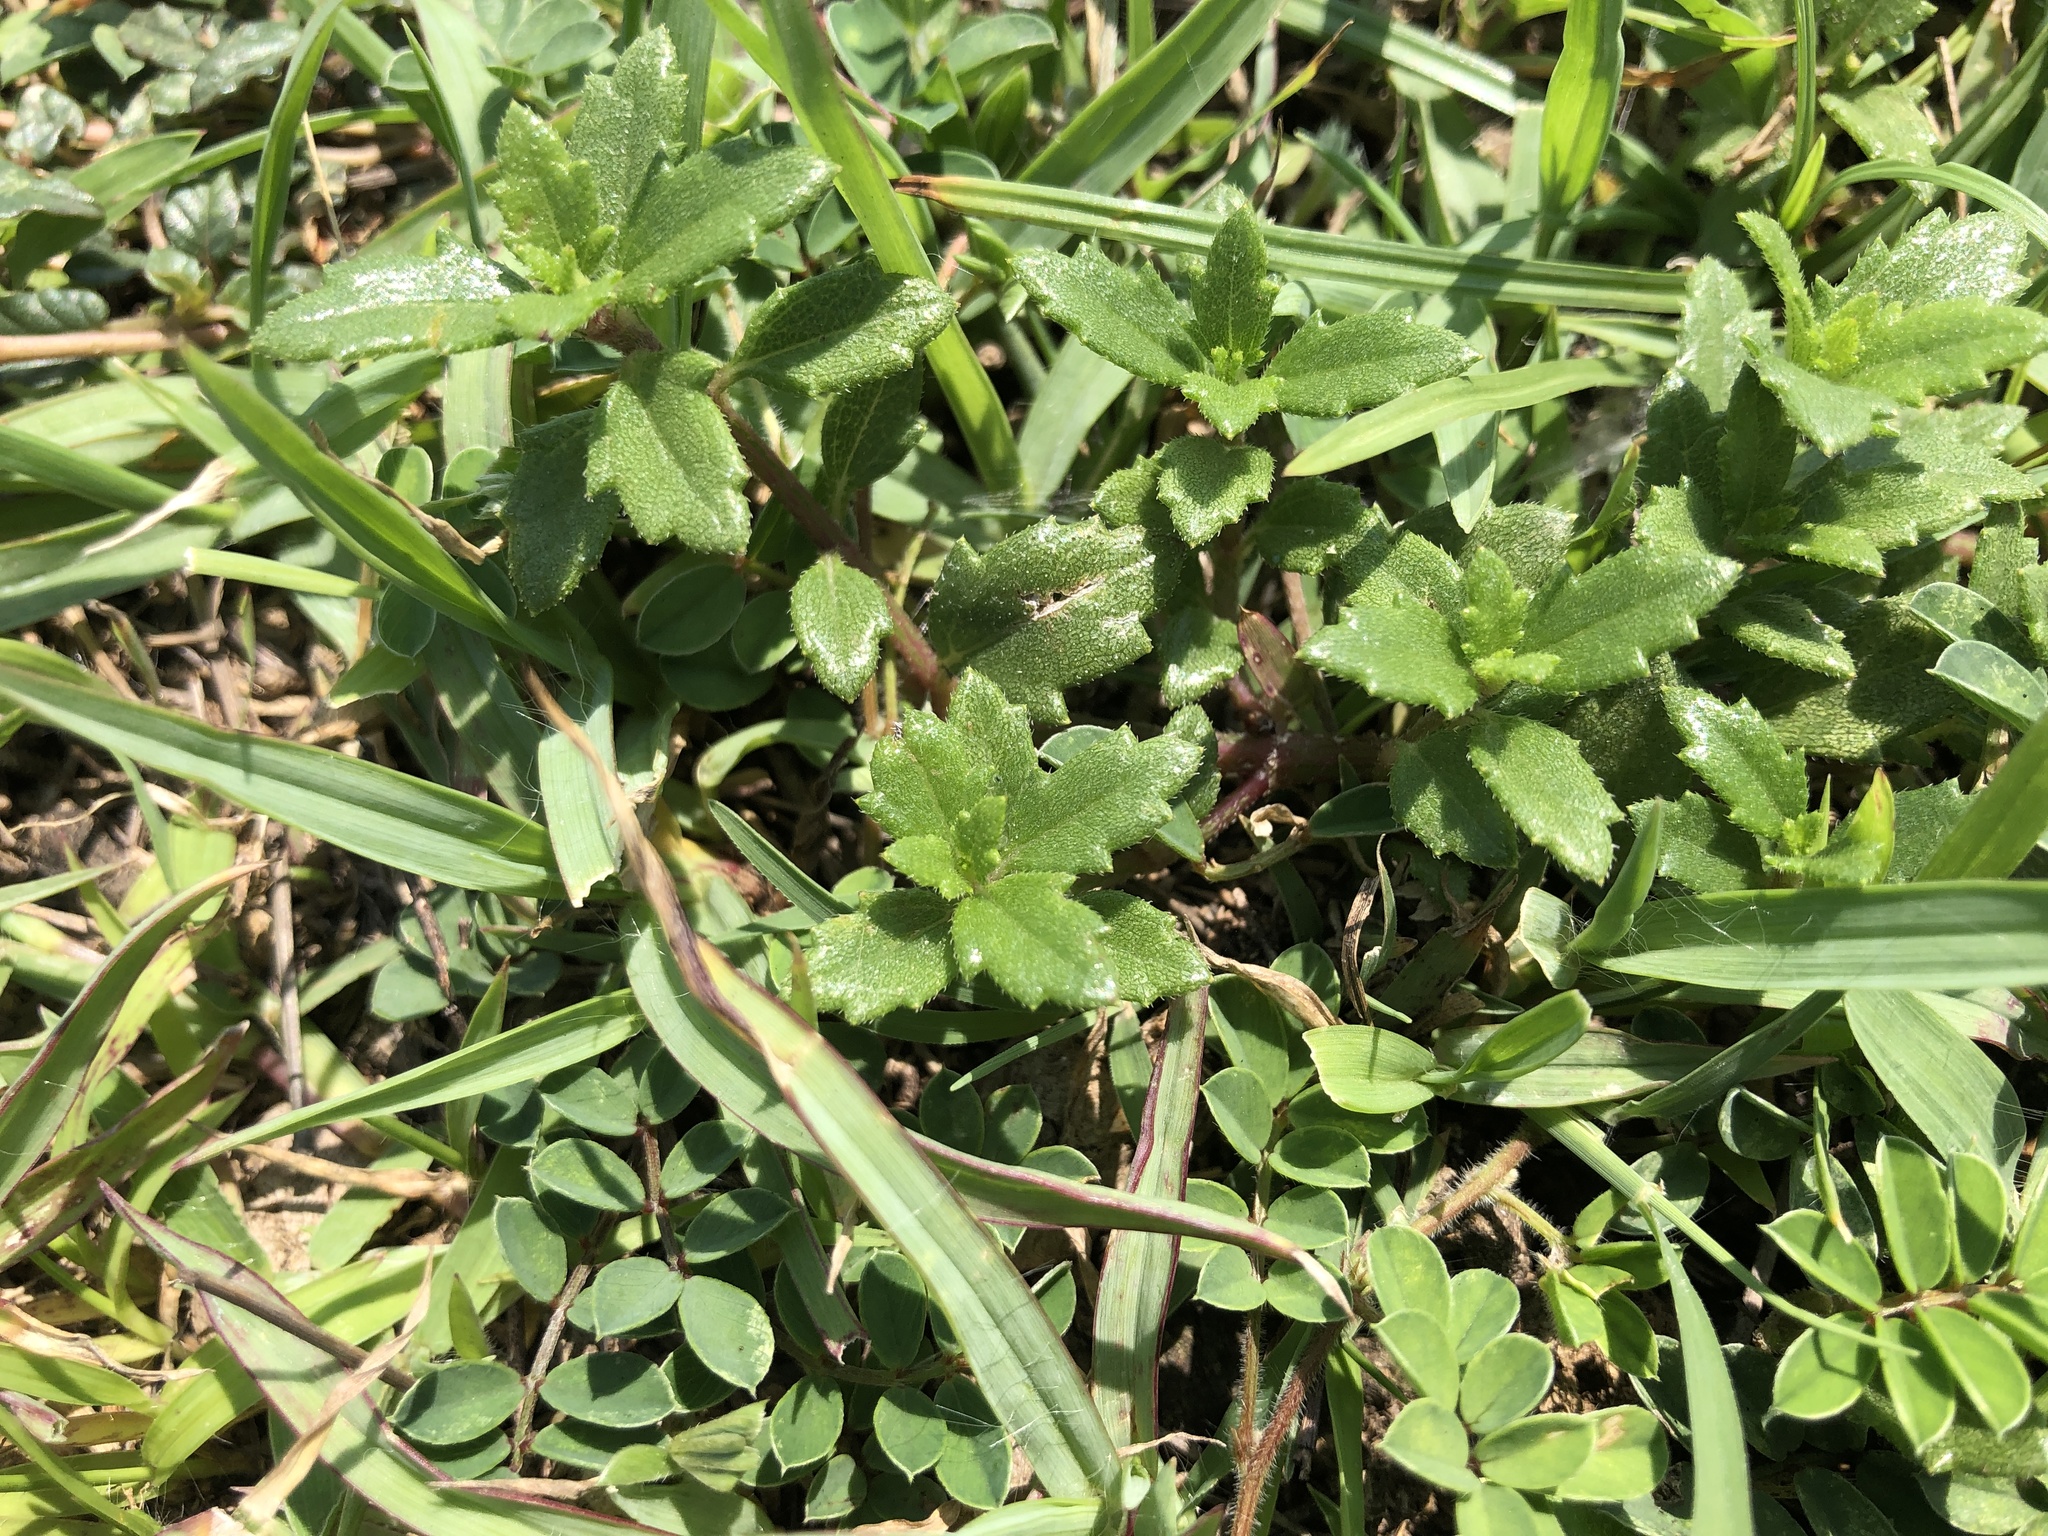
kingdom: Plantae
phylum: Tracheophyta
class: Magnoliopsida
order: Asterales
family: Asteraceae
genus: Melanthera
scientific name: Melanthera prostrata
